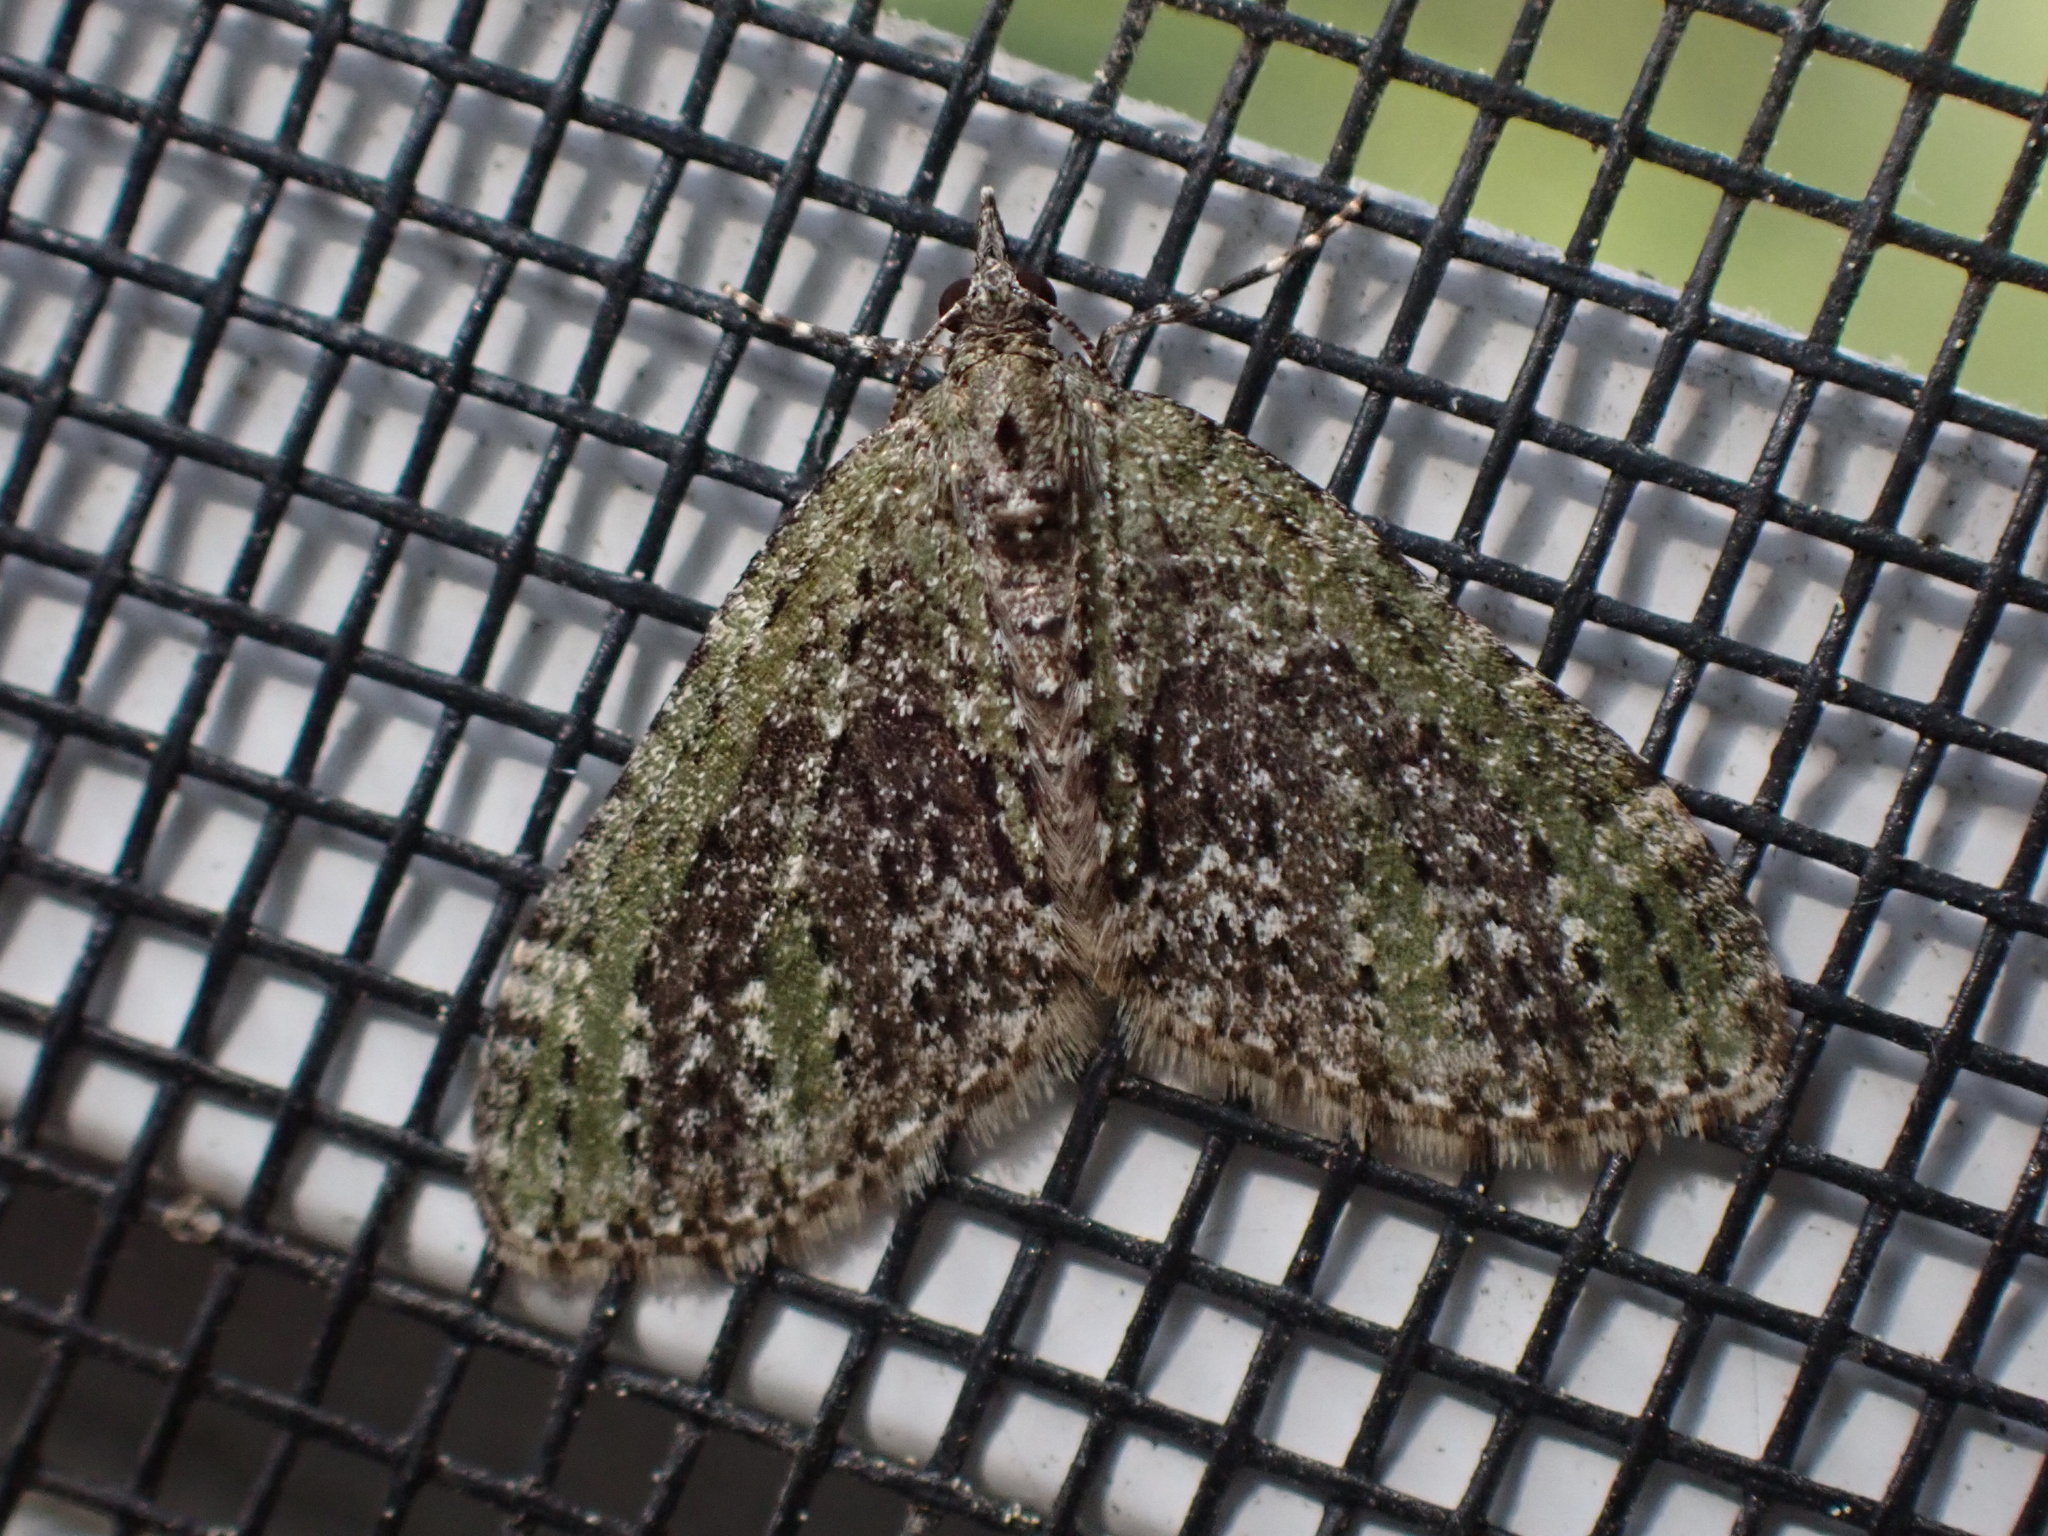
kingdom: Animalia
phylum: Arthropoda
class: Insecta
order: Lepidoptera
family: Geometridae
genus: Acasis
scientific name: Acasis viridata
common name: Olive-and-black carpet moth
